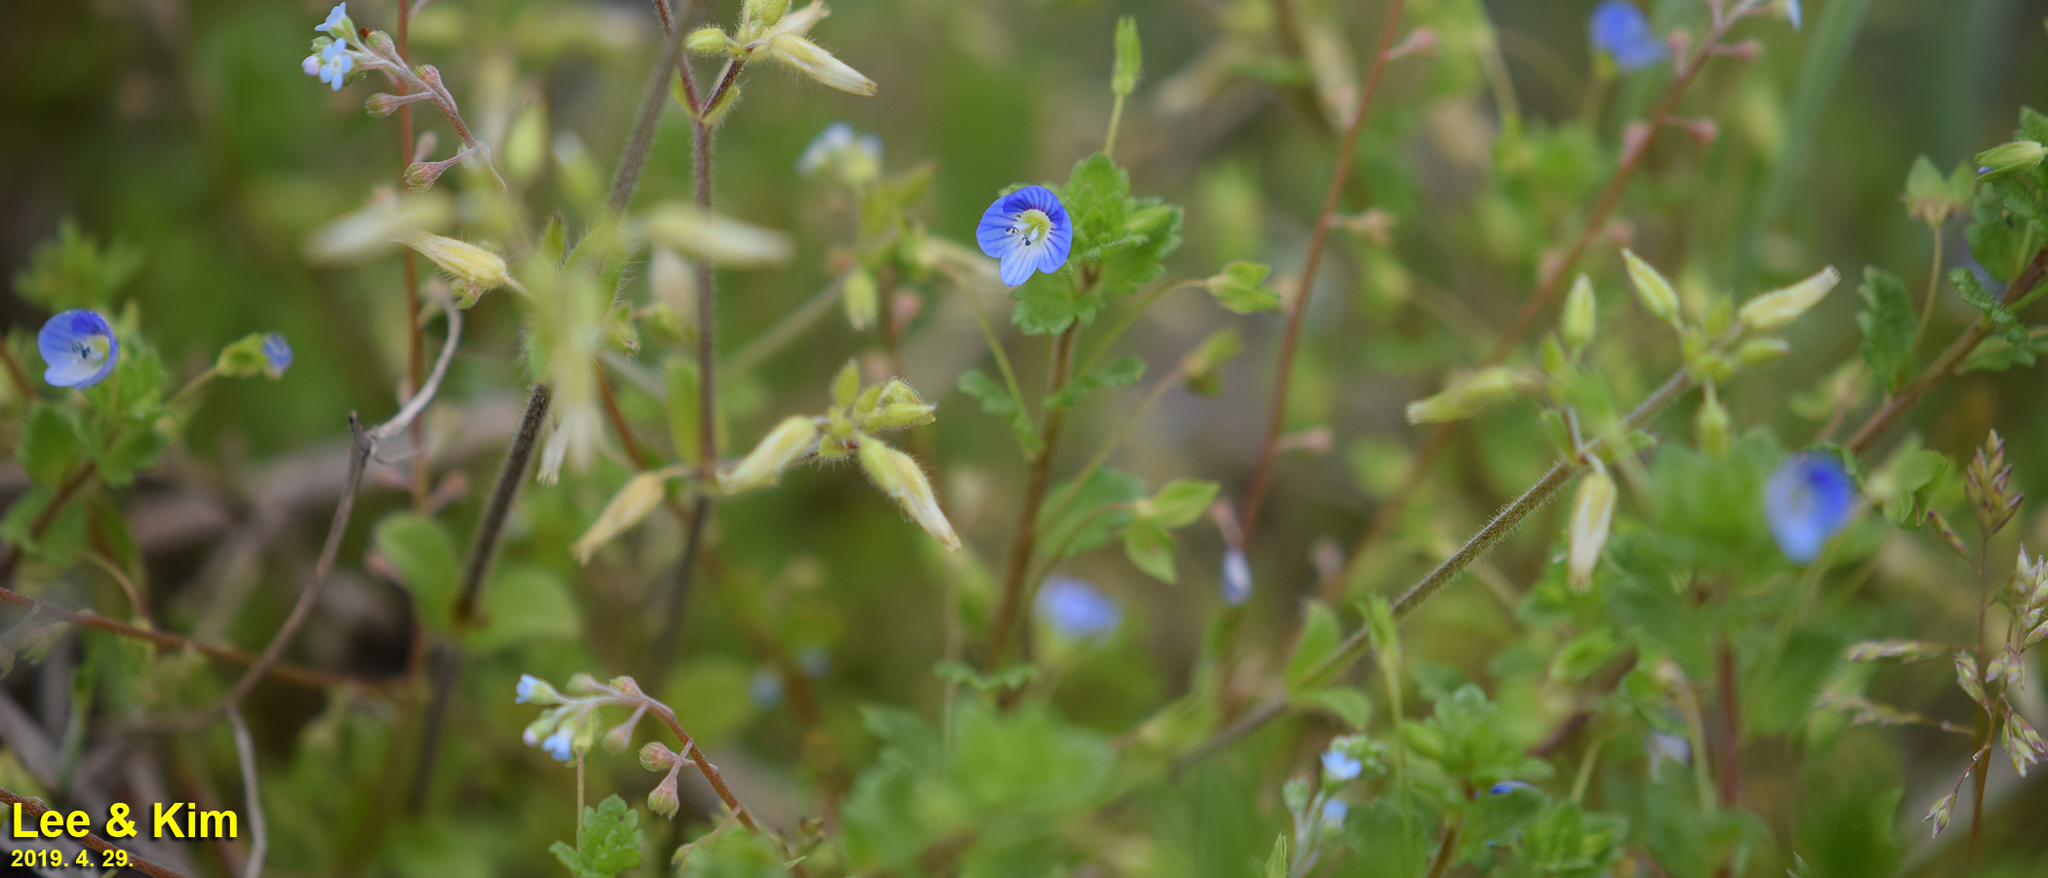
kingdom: Plantae
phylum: Tracheophyta
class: Magnoliopsida
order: Lamiales
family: Plantaginaceae
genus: Veronica
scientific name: Veronica persica
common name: Common field-speedwell
